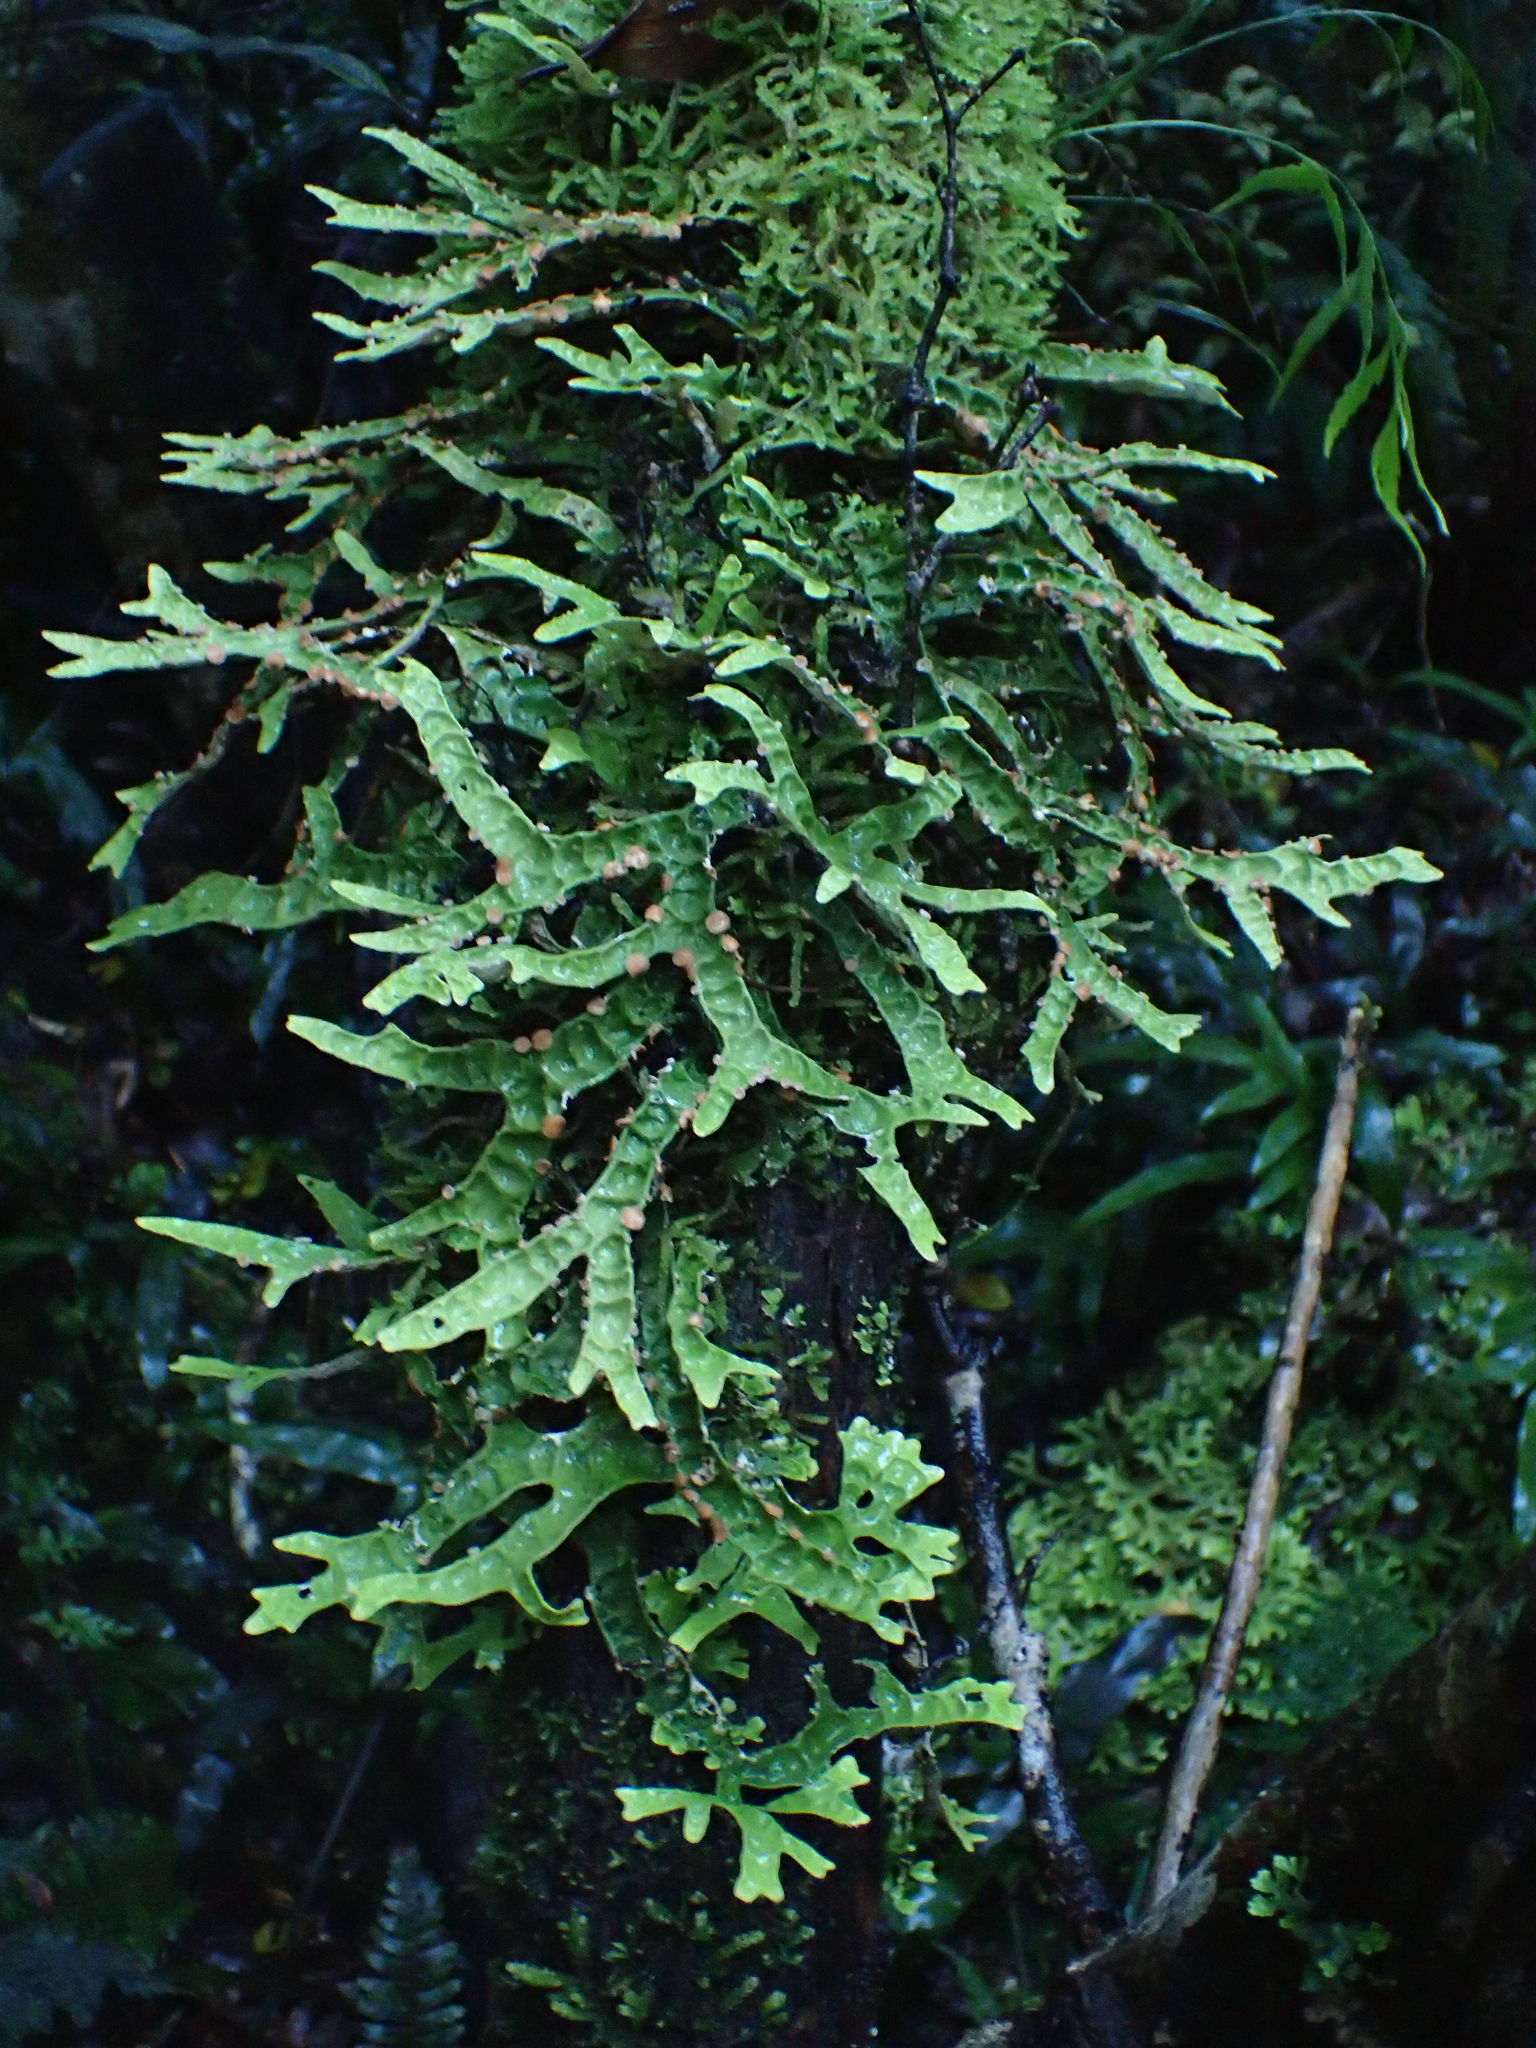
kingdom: Fungi
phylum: Ascomycota
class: Lecanoromycetes
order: Peltigerales
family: Lobariaceae
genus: Pseudocyphellaria
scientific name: Pseudocyphellaria rufovirescens
